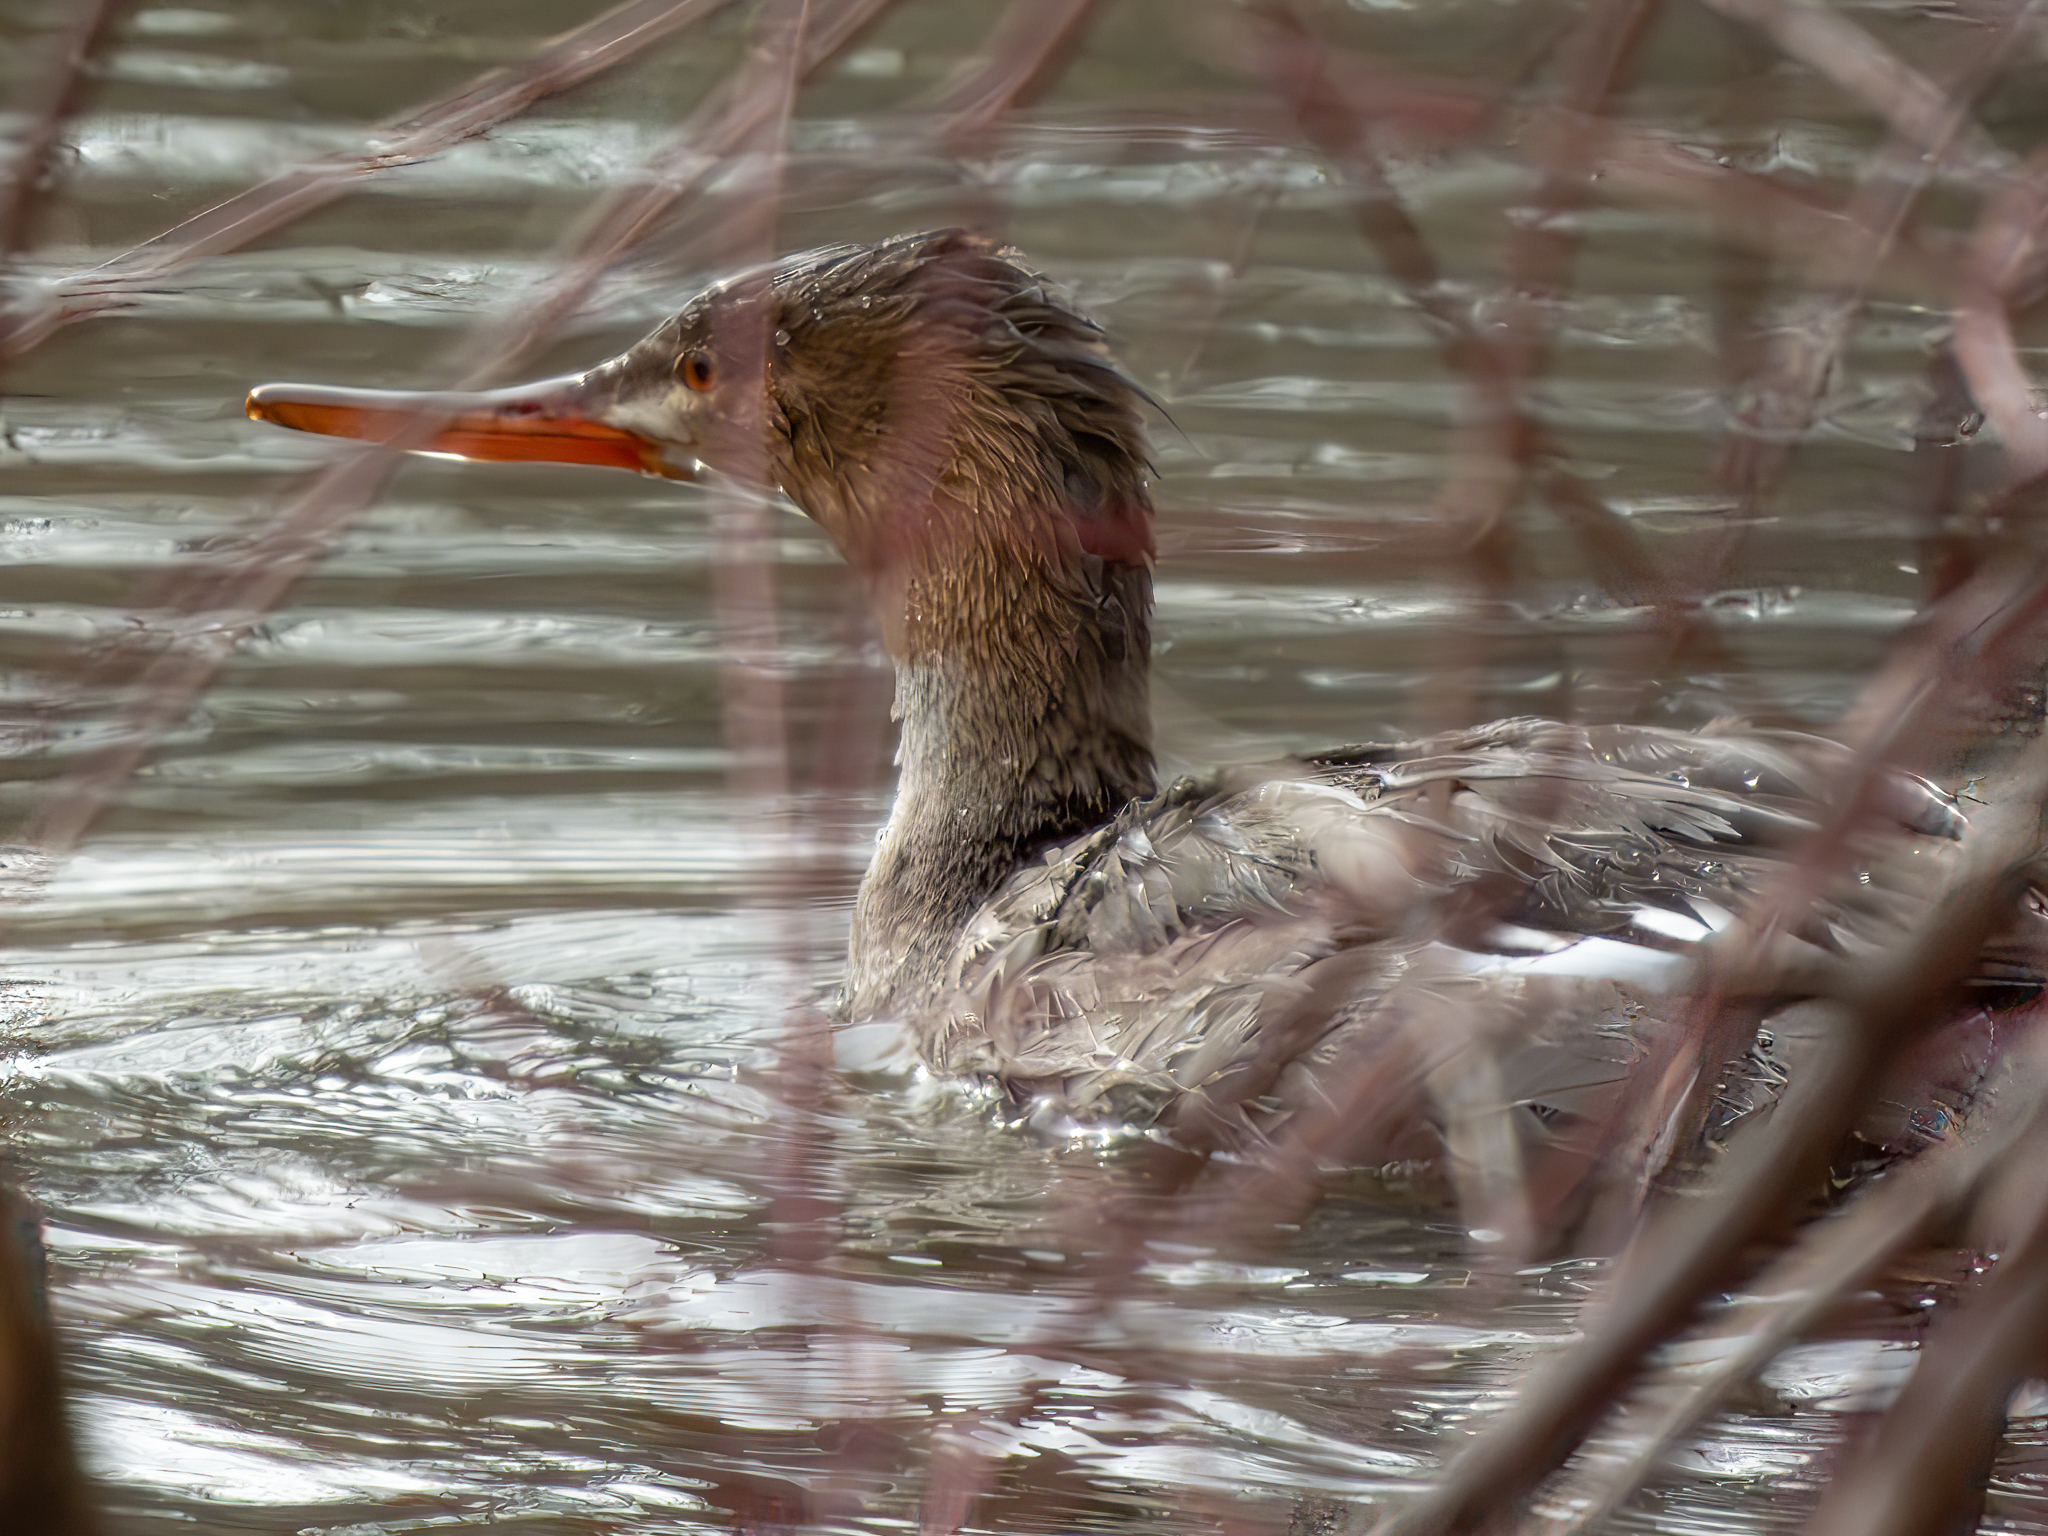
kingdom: Animalia
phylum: Chordata
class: Aves
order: Anseriformes
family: Anatidae
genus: Mergus
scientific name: Mergus serrator
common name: Red-breasted merganser
